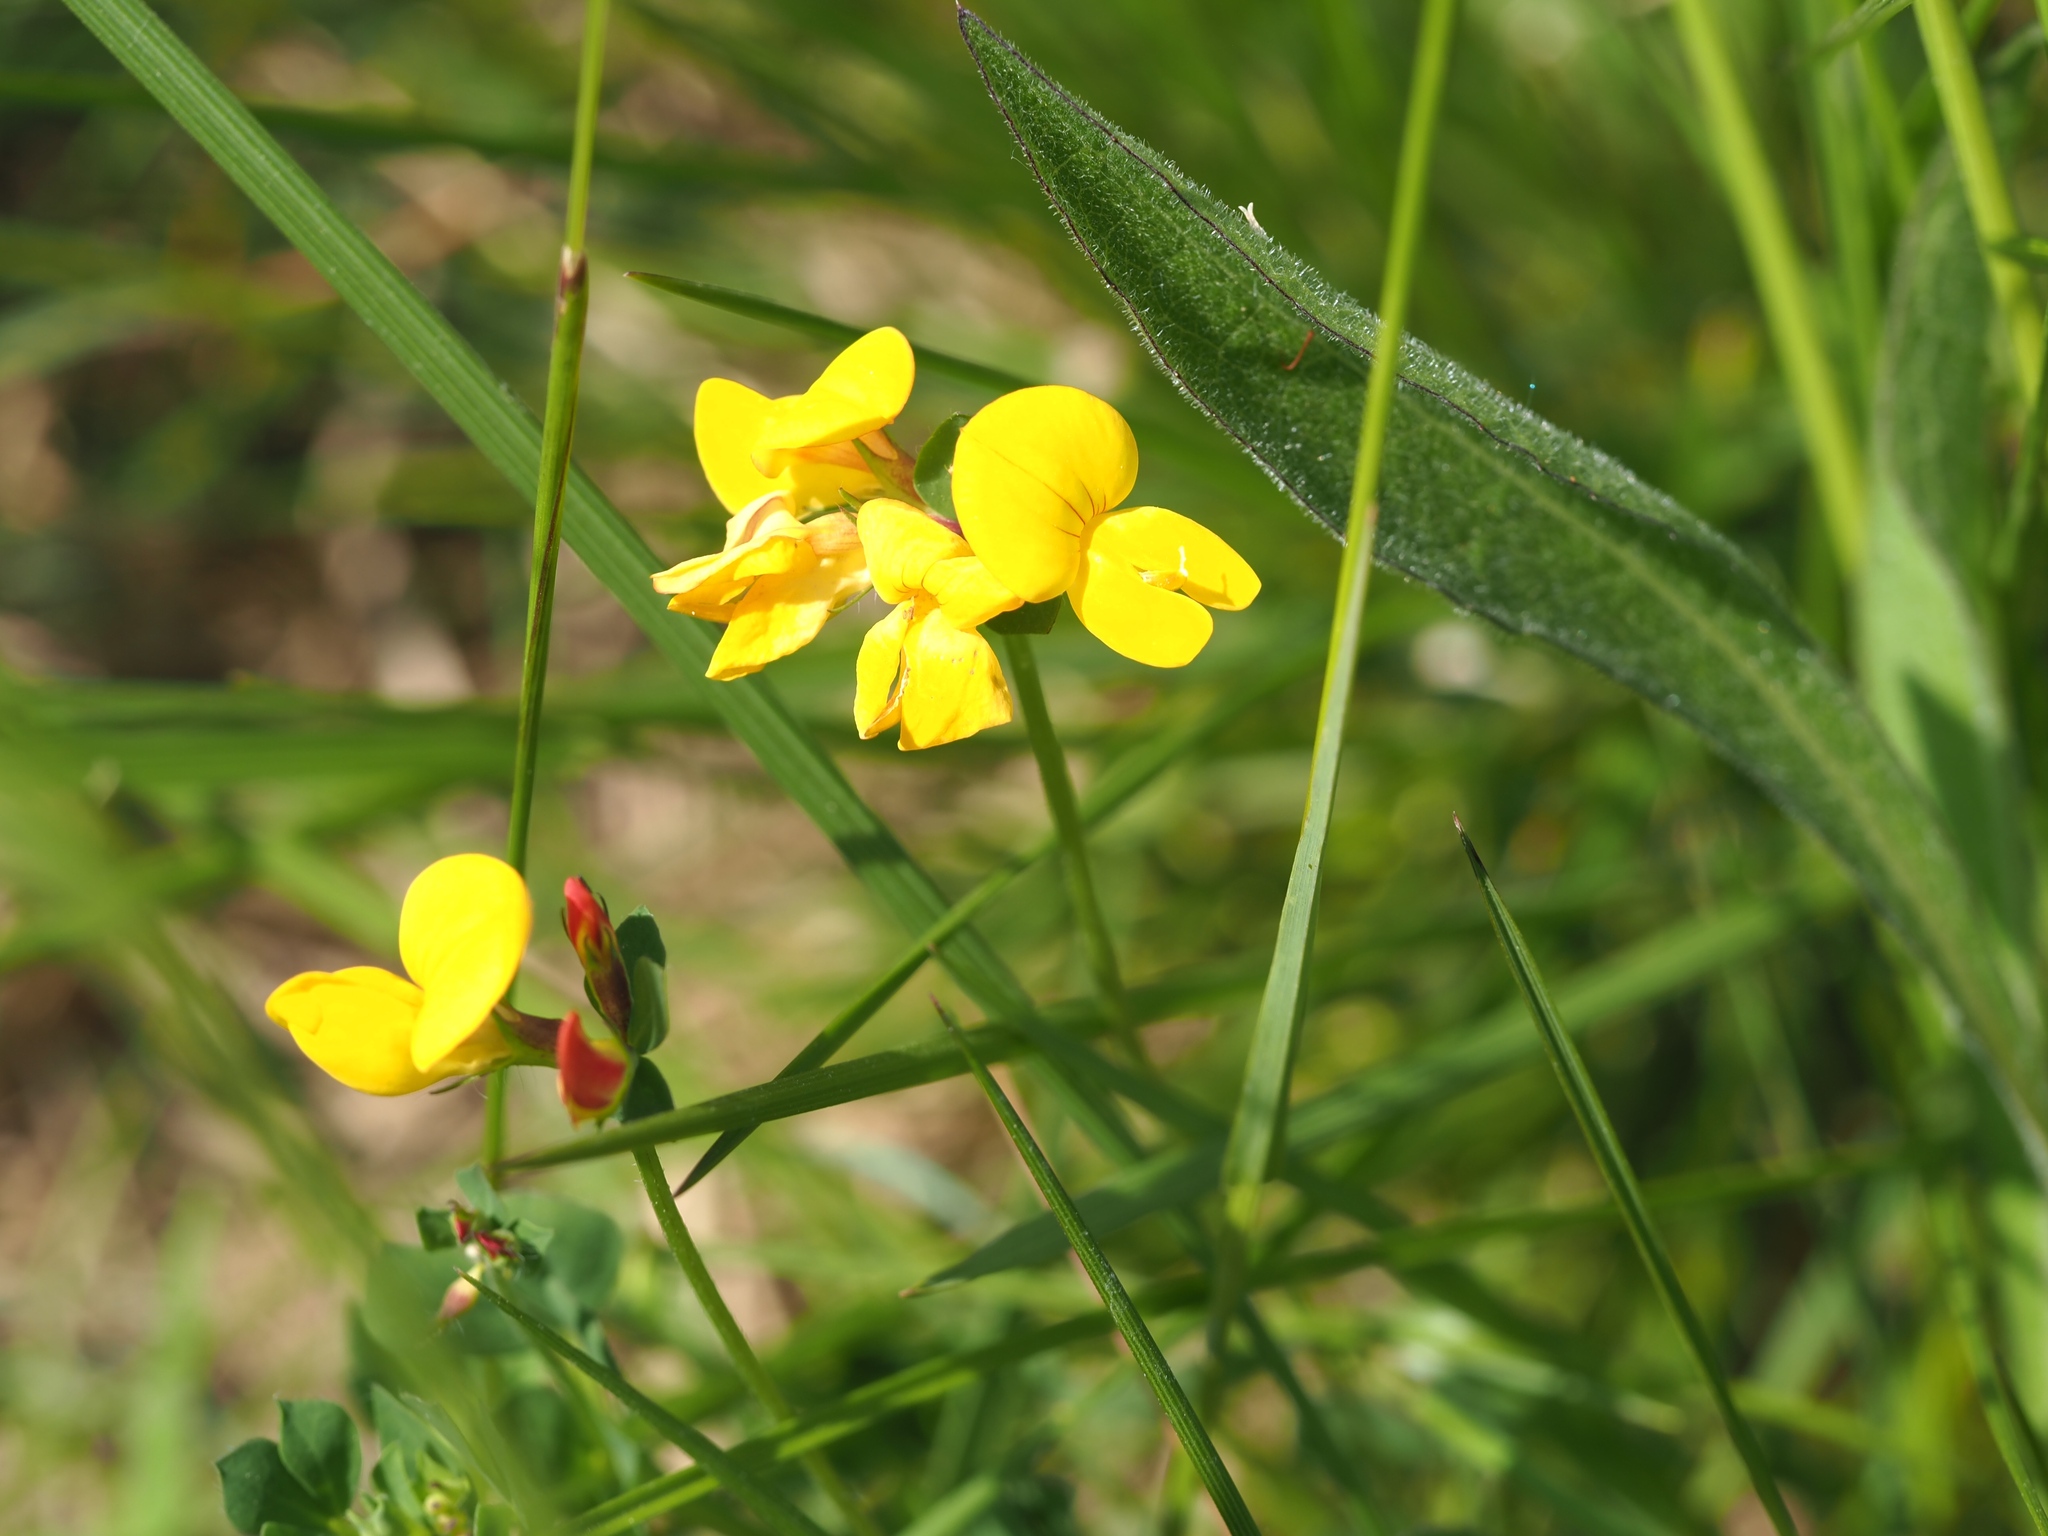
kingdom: Plantae
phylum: Tracheophyta
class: Magnoliopsida
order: Fabales
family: Fabaceae
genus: Lotus
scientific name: Lotus corniculatus
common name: Common bird's-foot-trefoil
